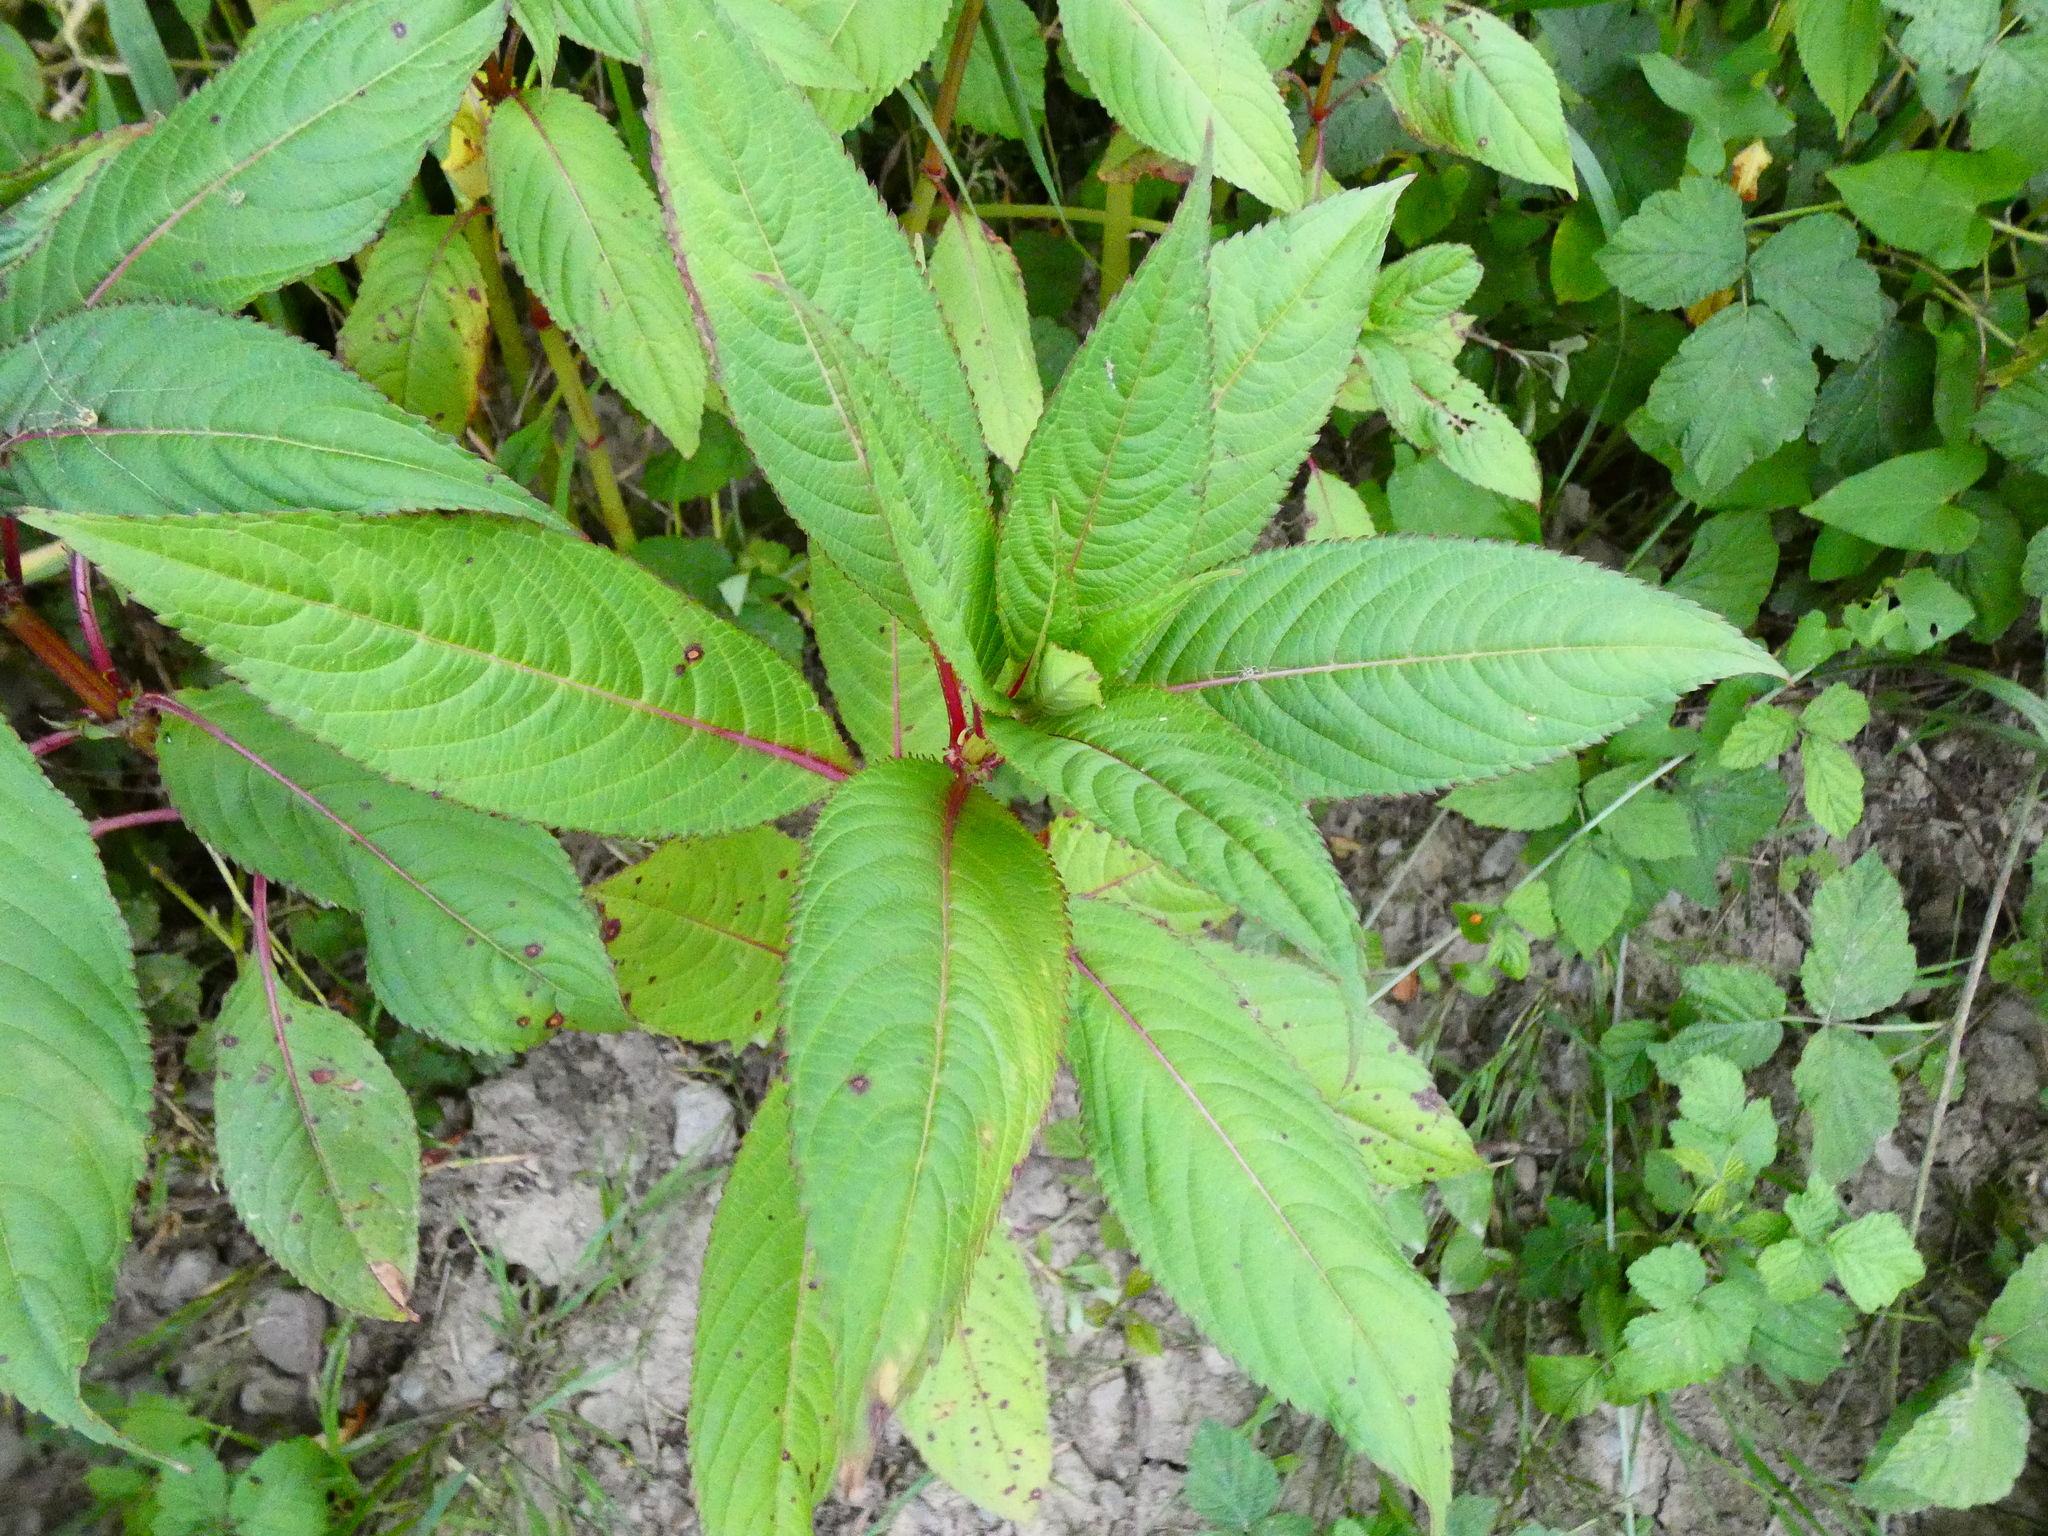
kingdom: Plantae
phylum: Tracheophyta
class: Magnoliopsida
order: Ericales
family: Balsaminaceae
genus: Impatiens
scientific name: Impatiens glandulifera
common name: Himalayan balsam
